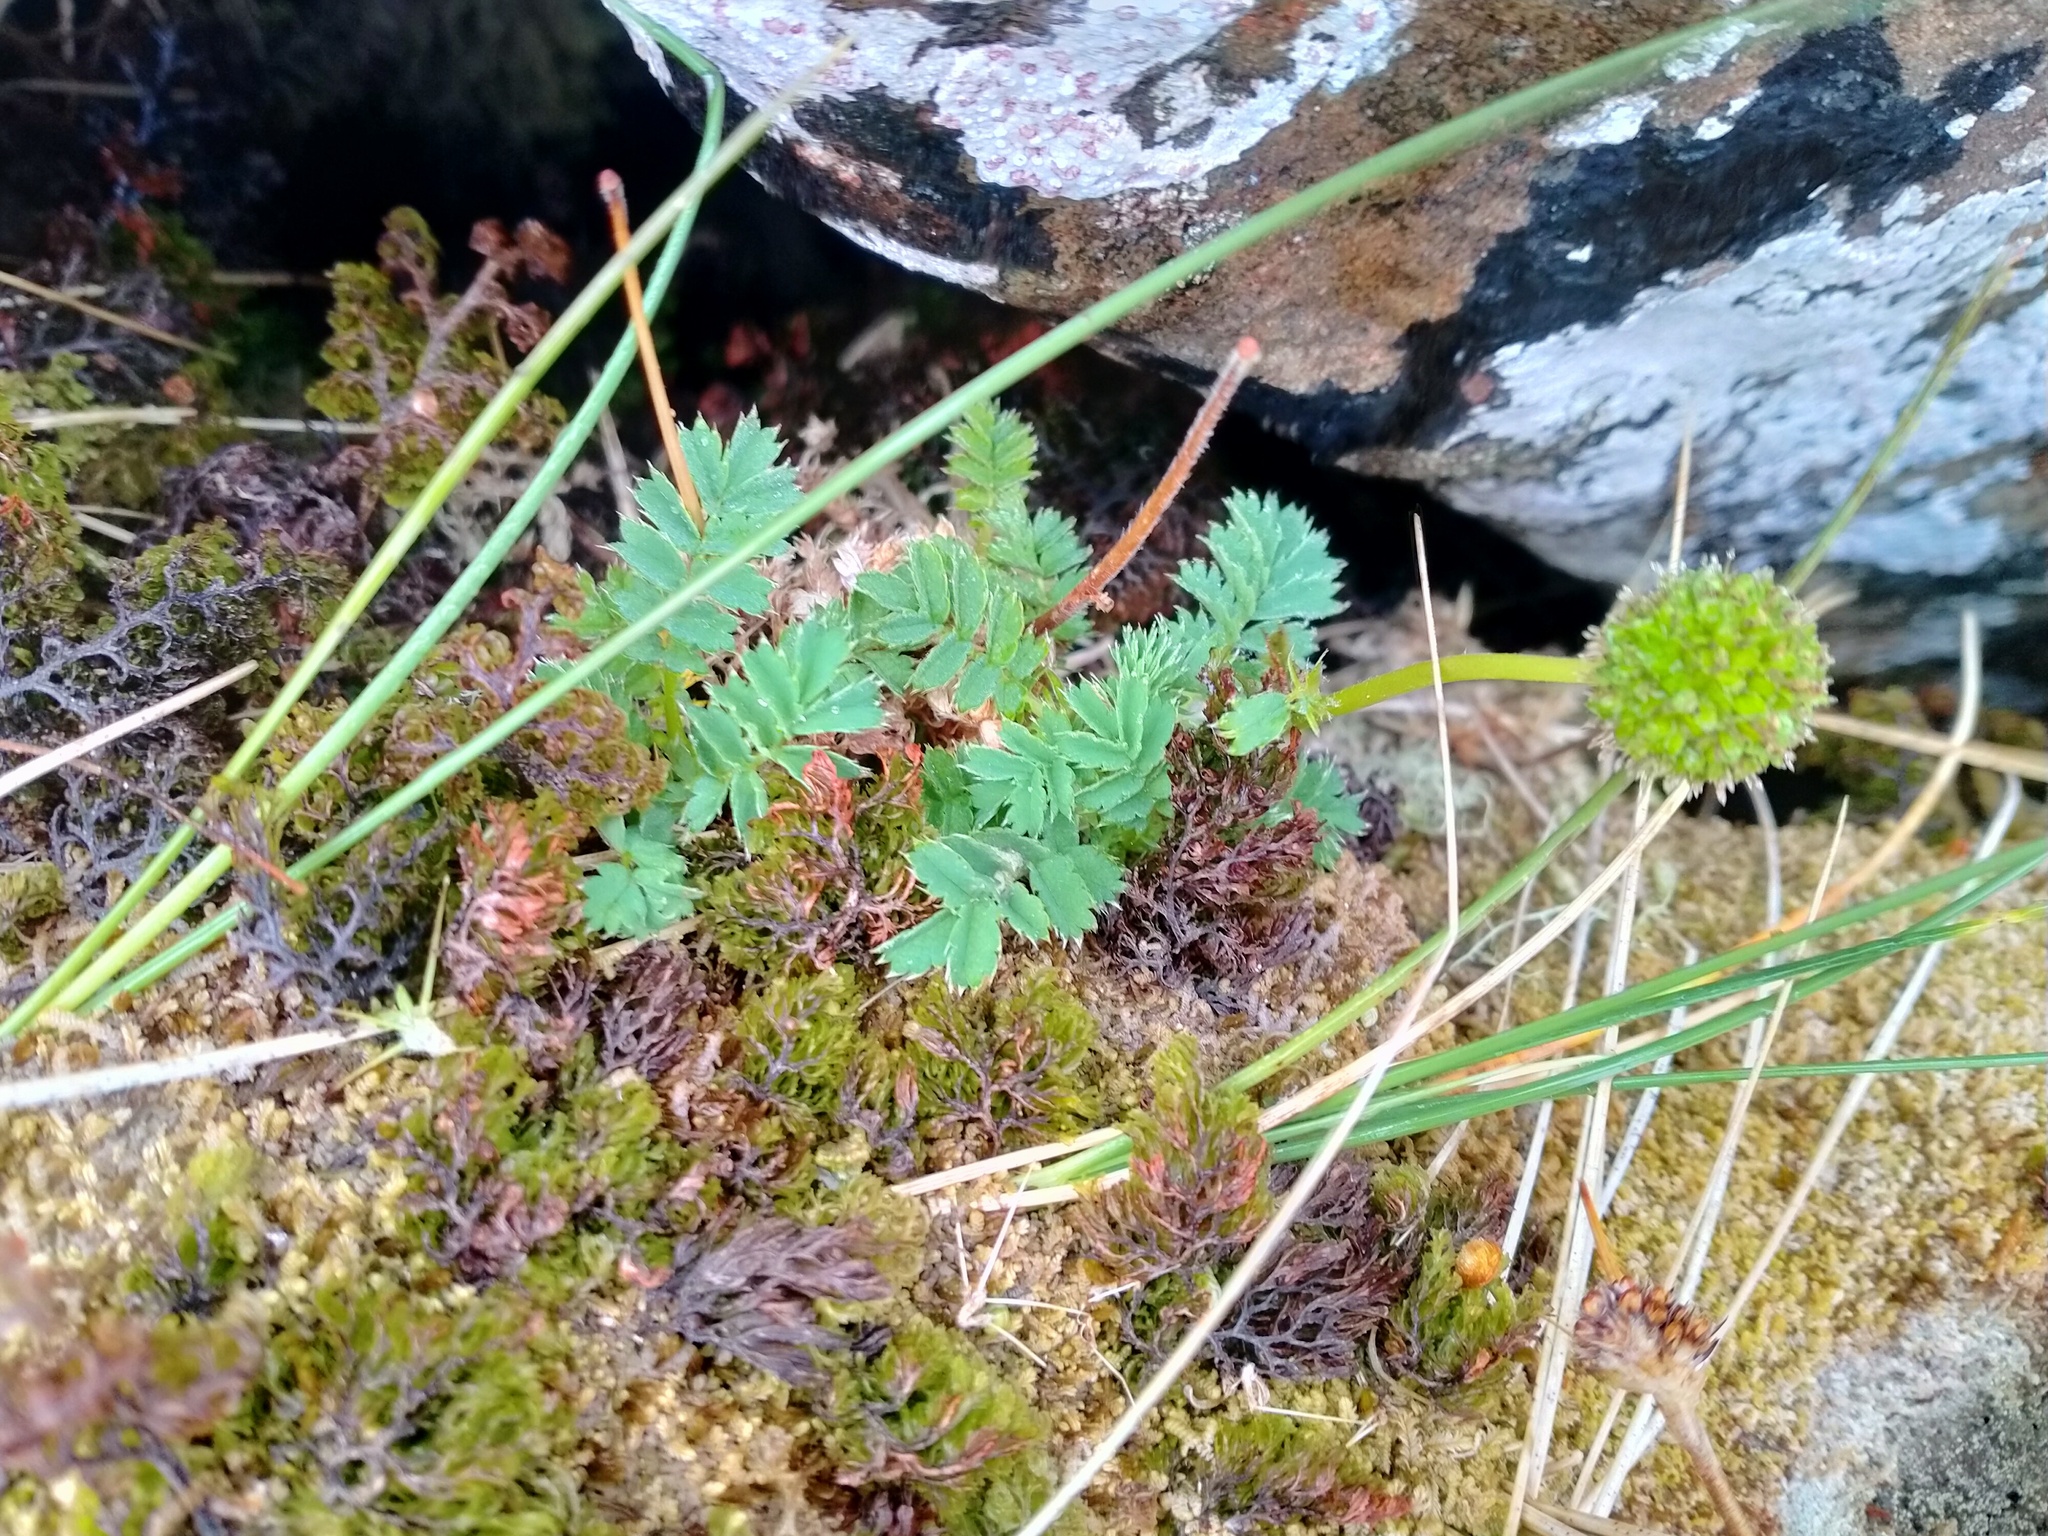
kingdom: Plantae
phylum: Tracheophyta
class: Magnoliopsida
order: Rosales
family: Rosaceae
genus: Acaena
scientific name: Acaena minor
